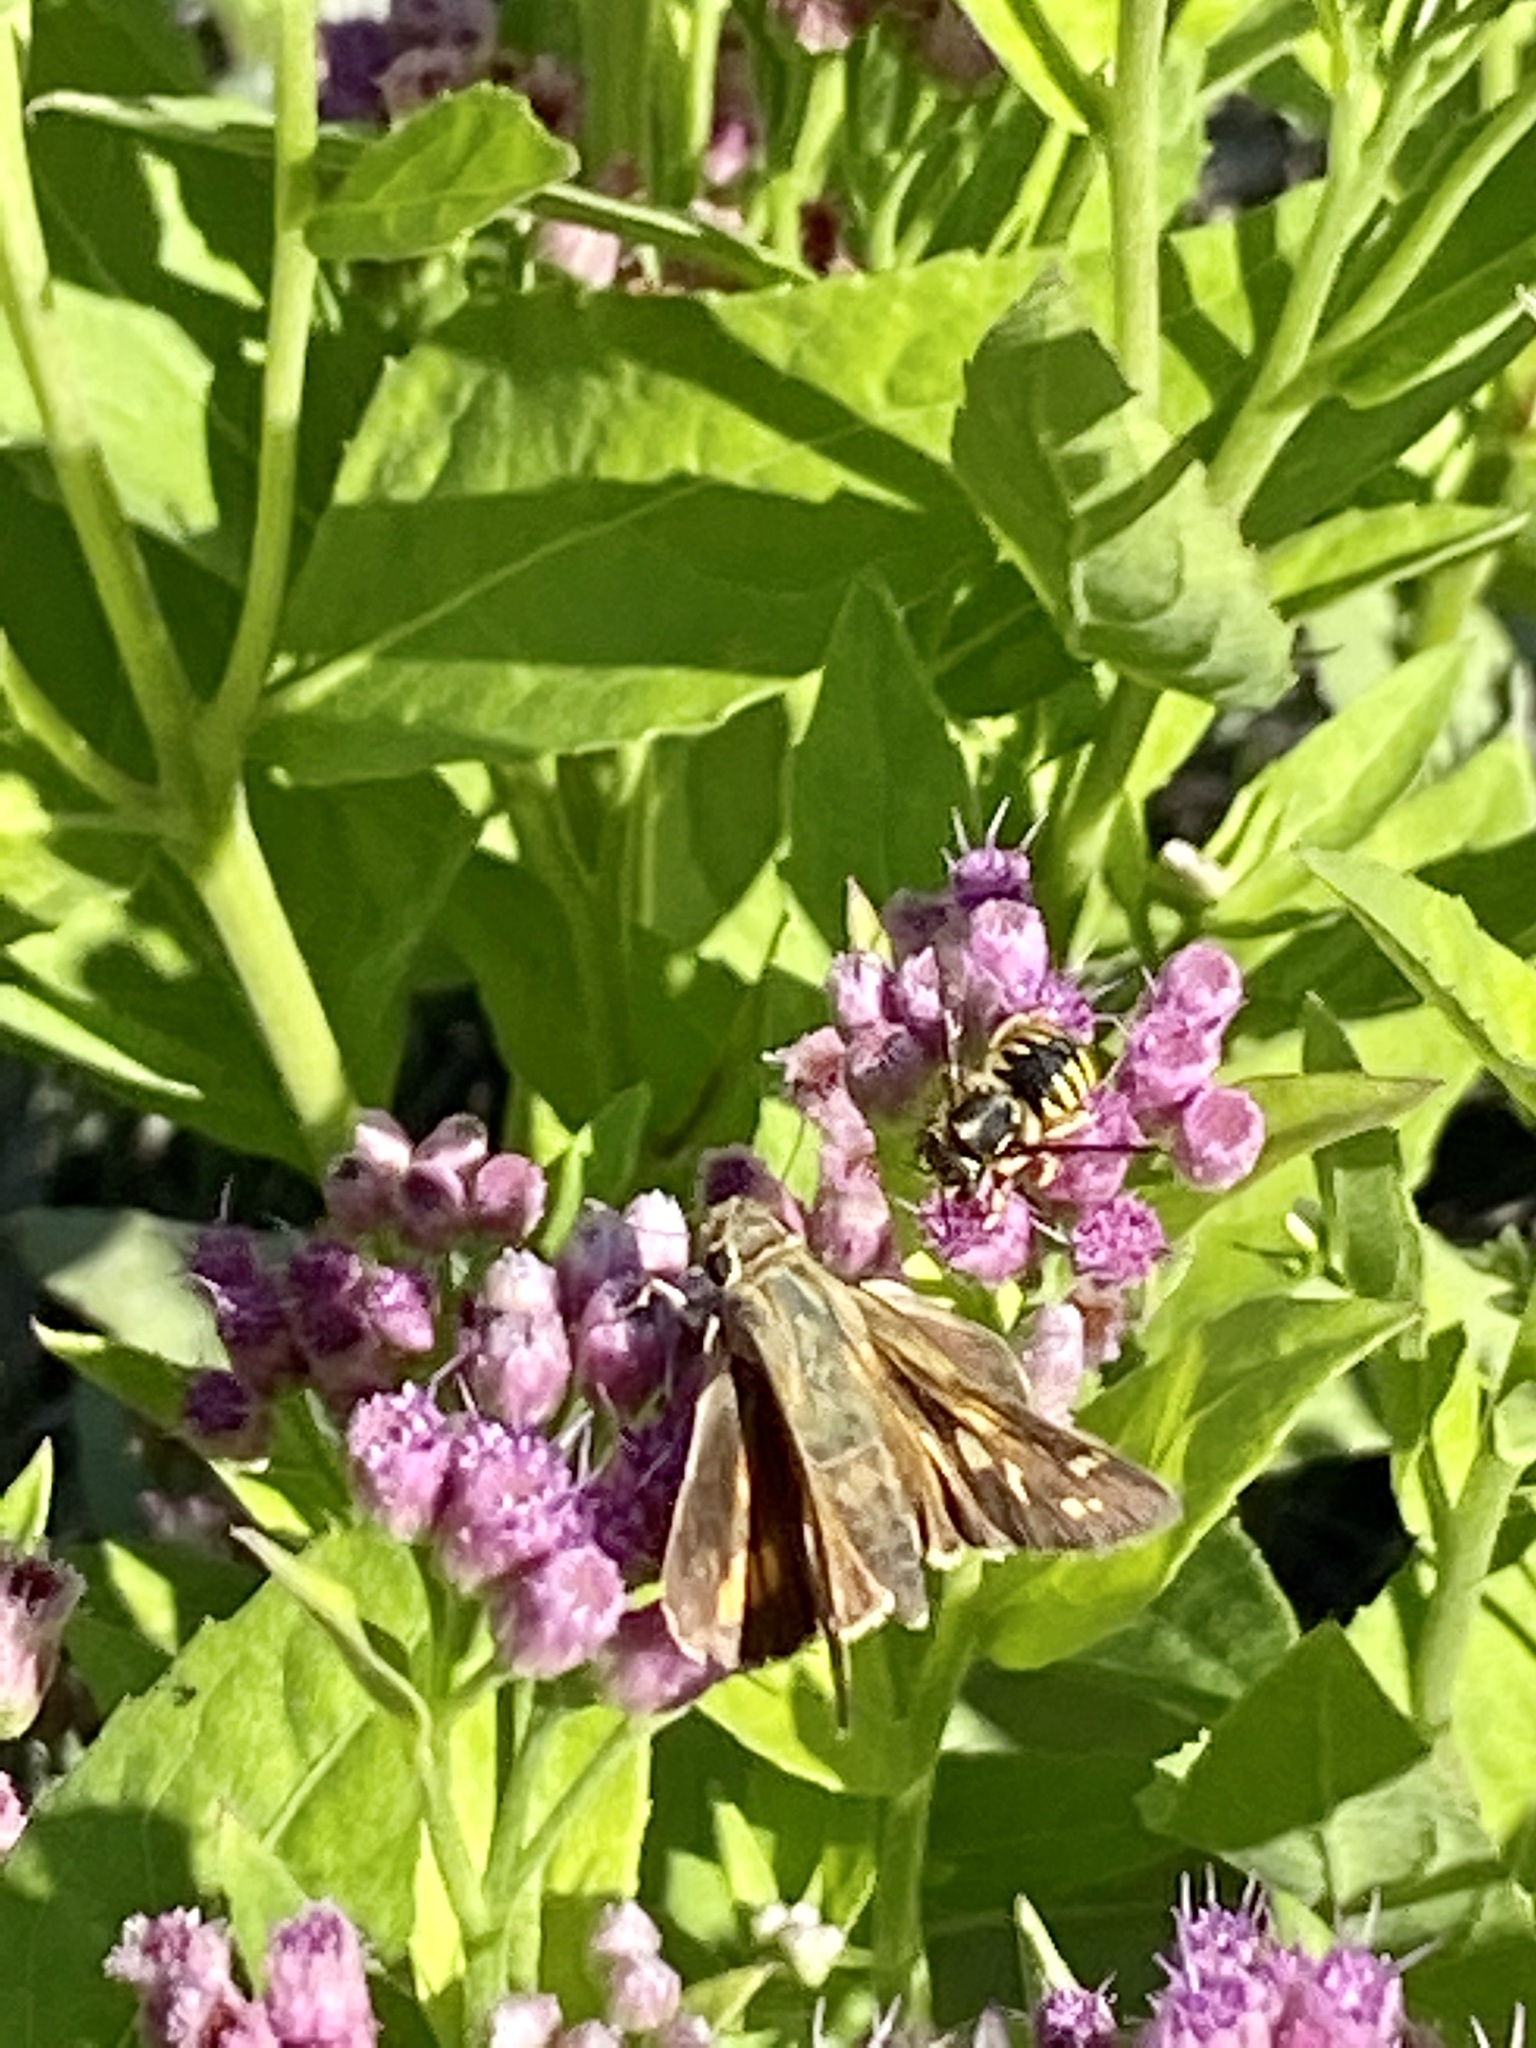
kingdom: Animalia
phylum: Arthropoda
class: Insecta
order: Lepidoptera
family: Hesperiidae
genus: Atalopedes
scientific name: Atalopedes
